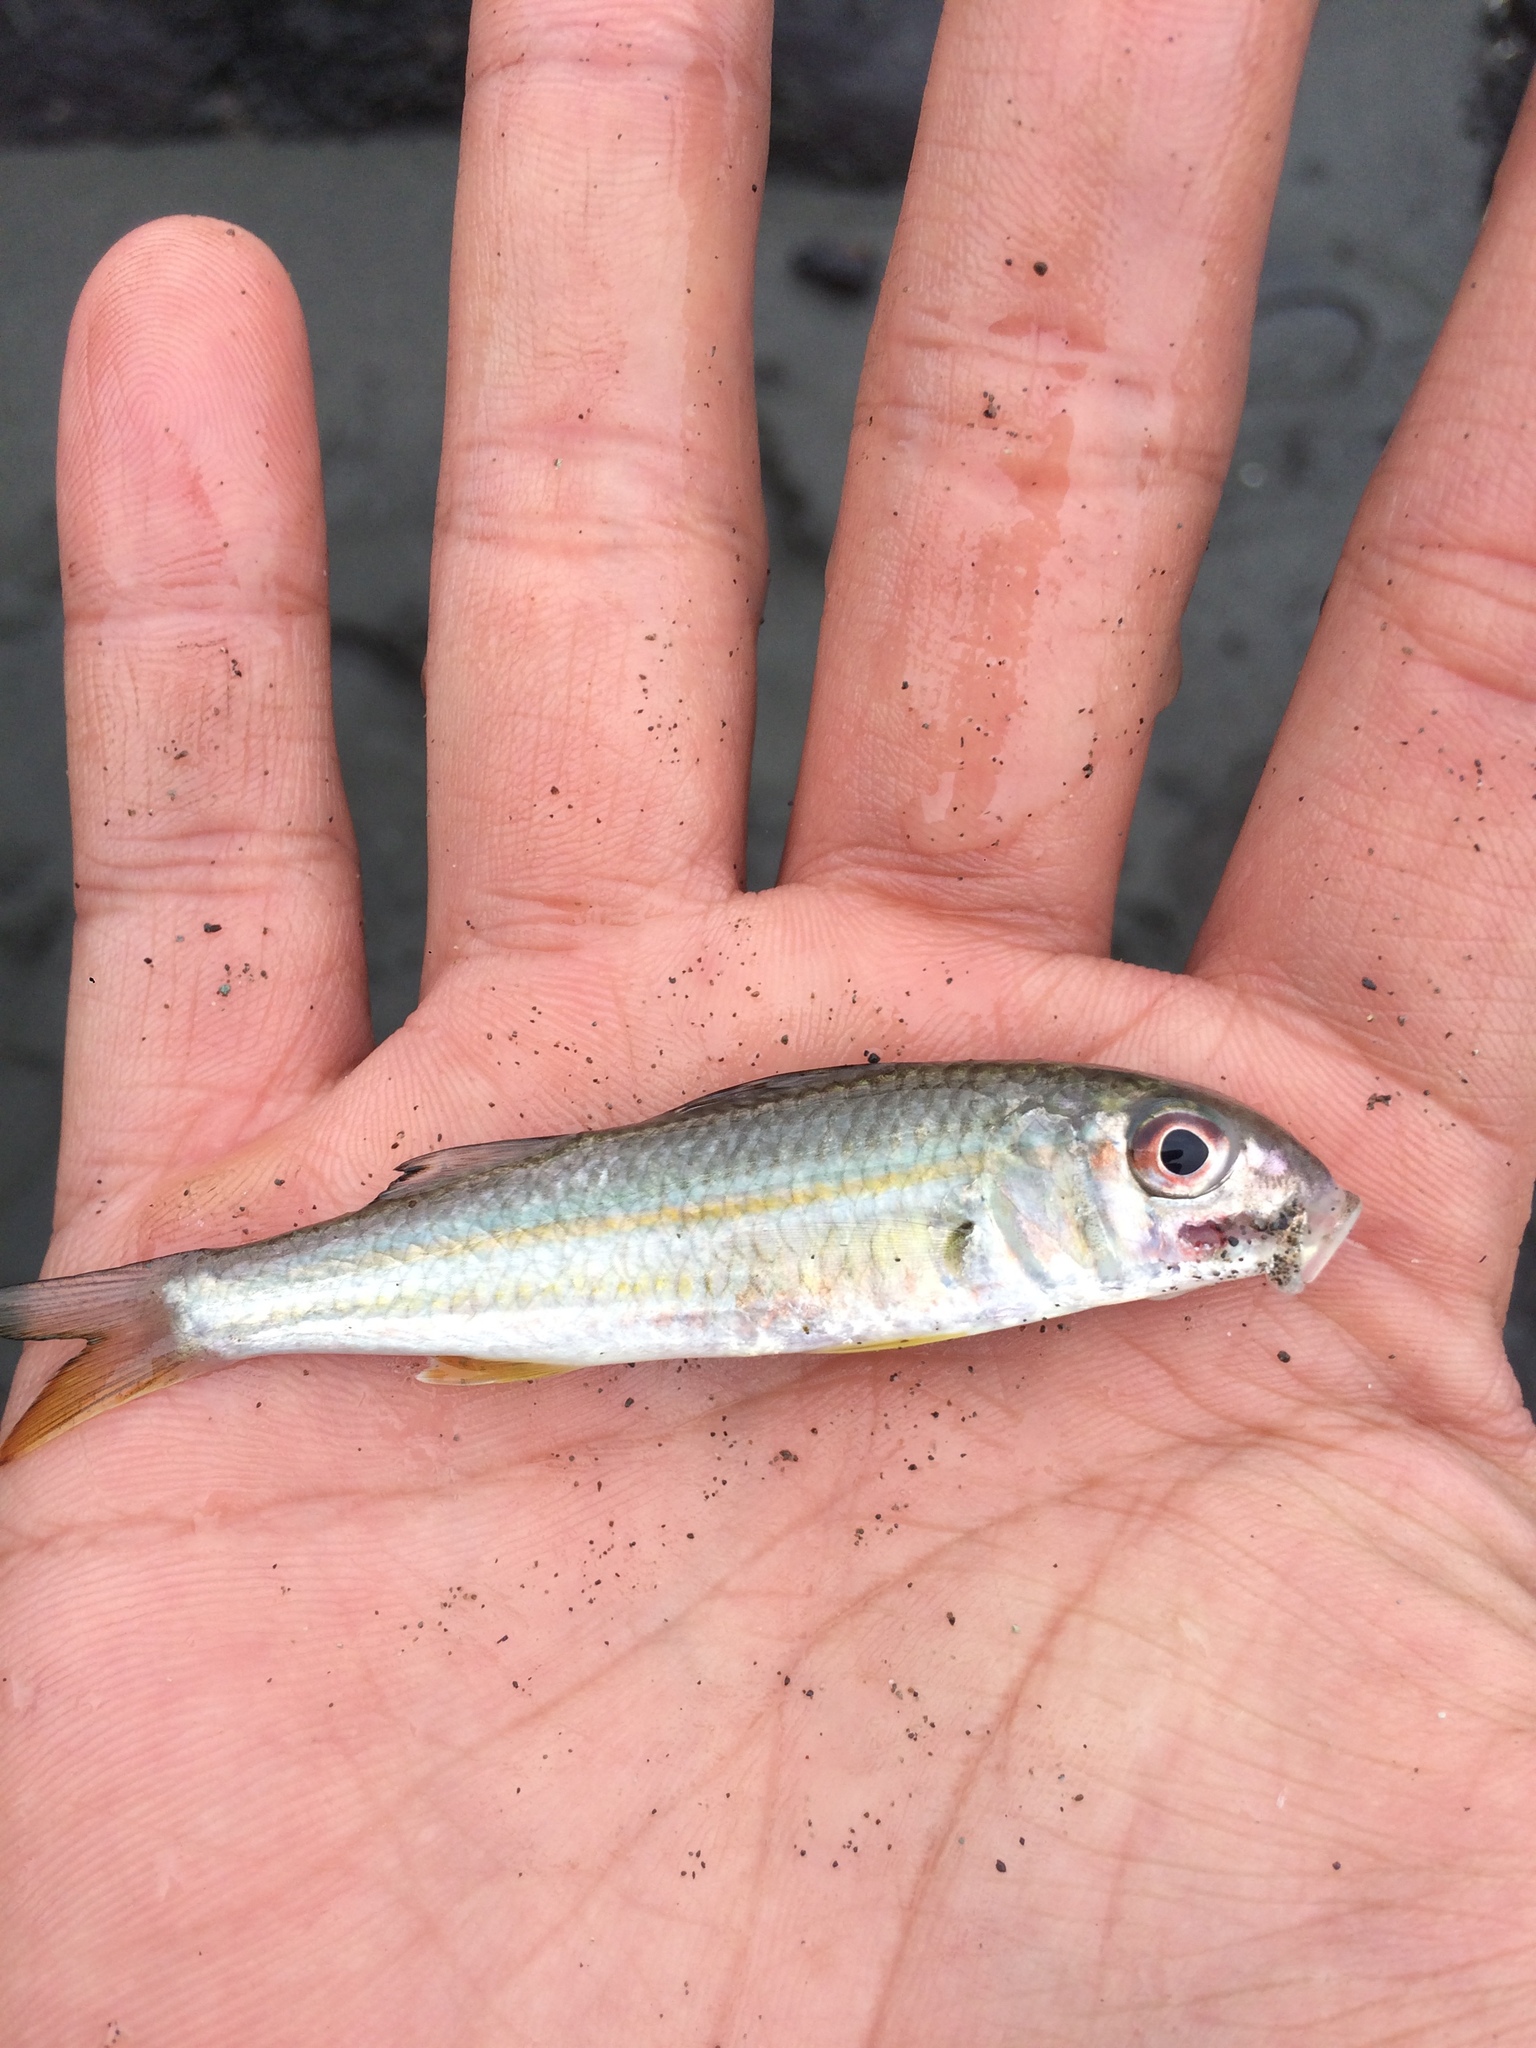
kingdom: Animalia
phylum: Chordata
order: Perciformes
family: Mullidae
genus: Upeneus
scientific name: Upeneus moluccensis
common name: Goldband goatfish
